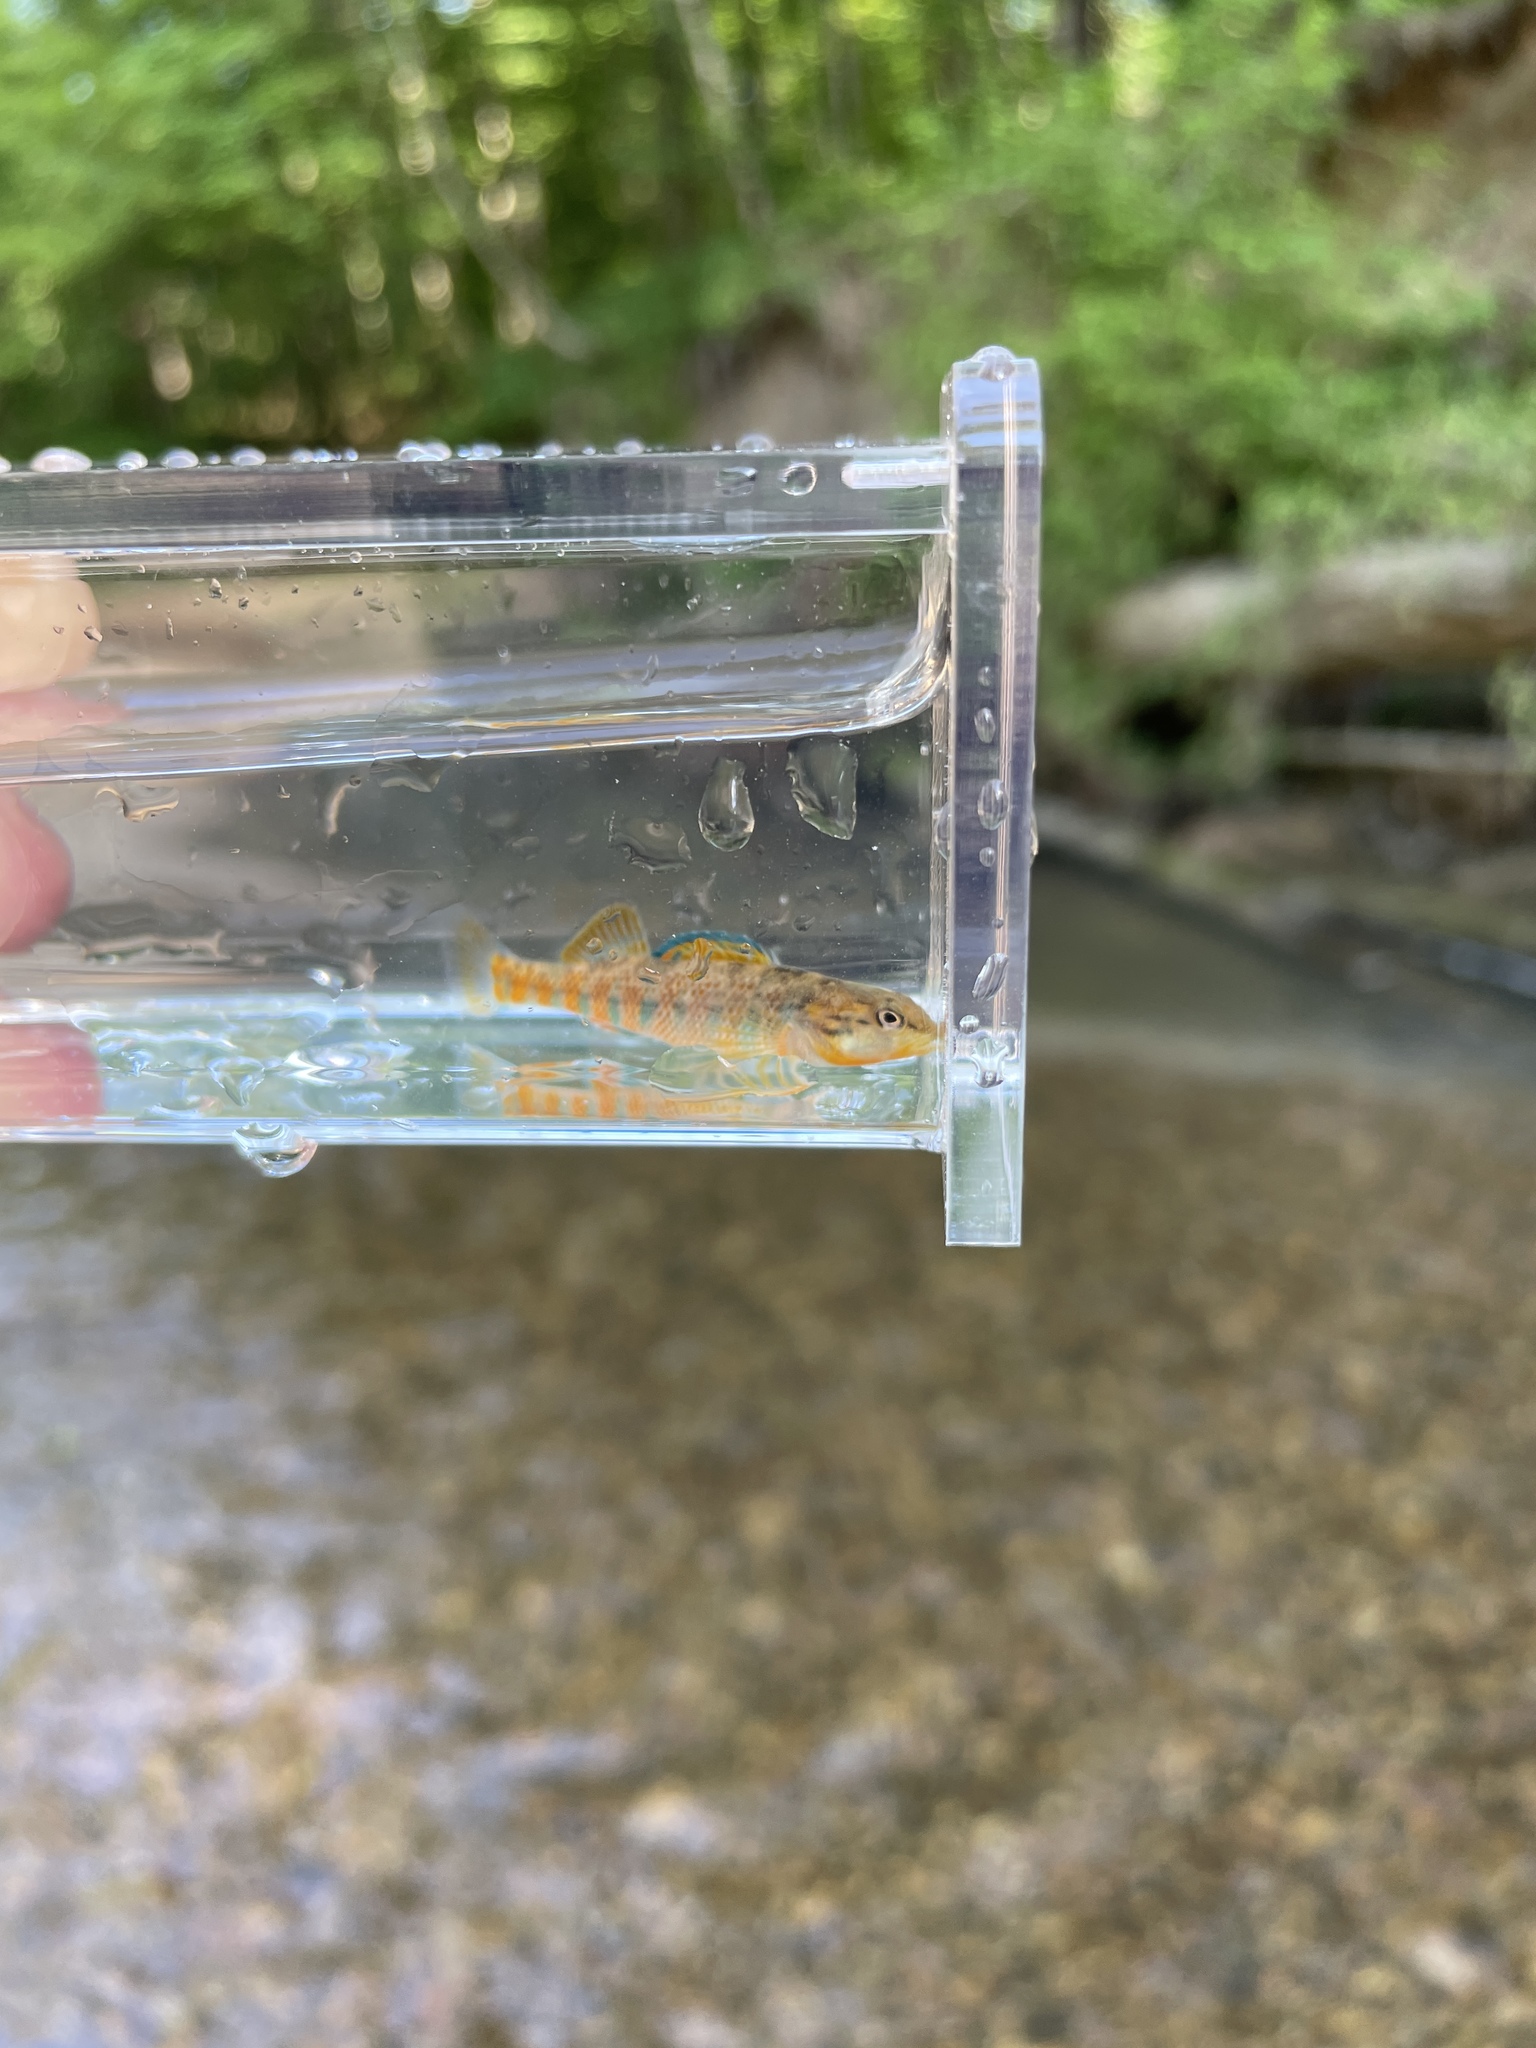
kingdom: Animalia
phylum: Chordata
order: Perciformes
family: Percidae
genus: Etheostoma
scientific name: Etheostoma caeruleum
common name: Rainbow darter
